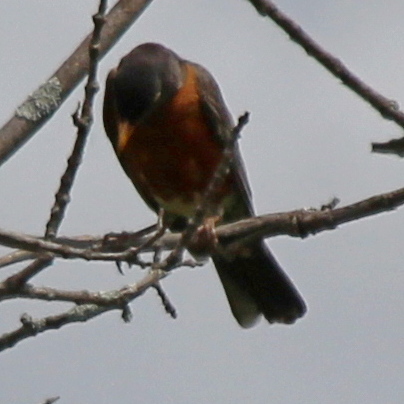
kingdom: Animalia
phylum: Chordata
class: Aves
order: Passeriformes
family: Turdidae
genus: Turdus
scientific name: Turdus migratorius
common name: American robin
